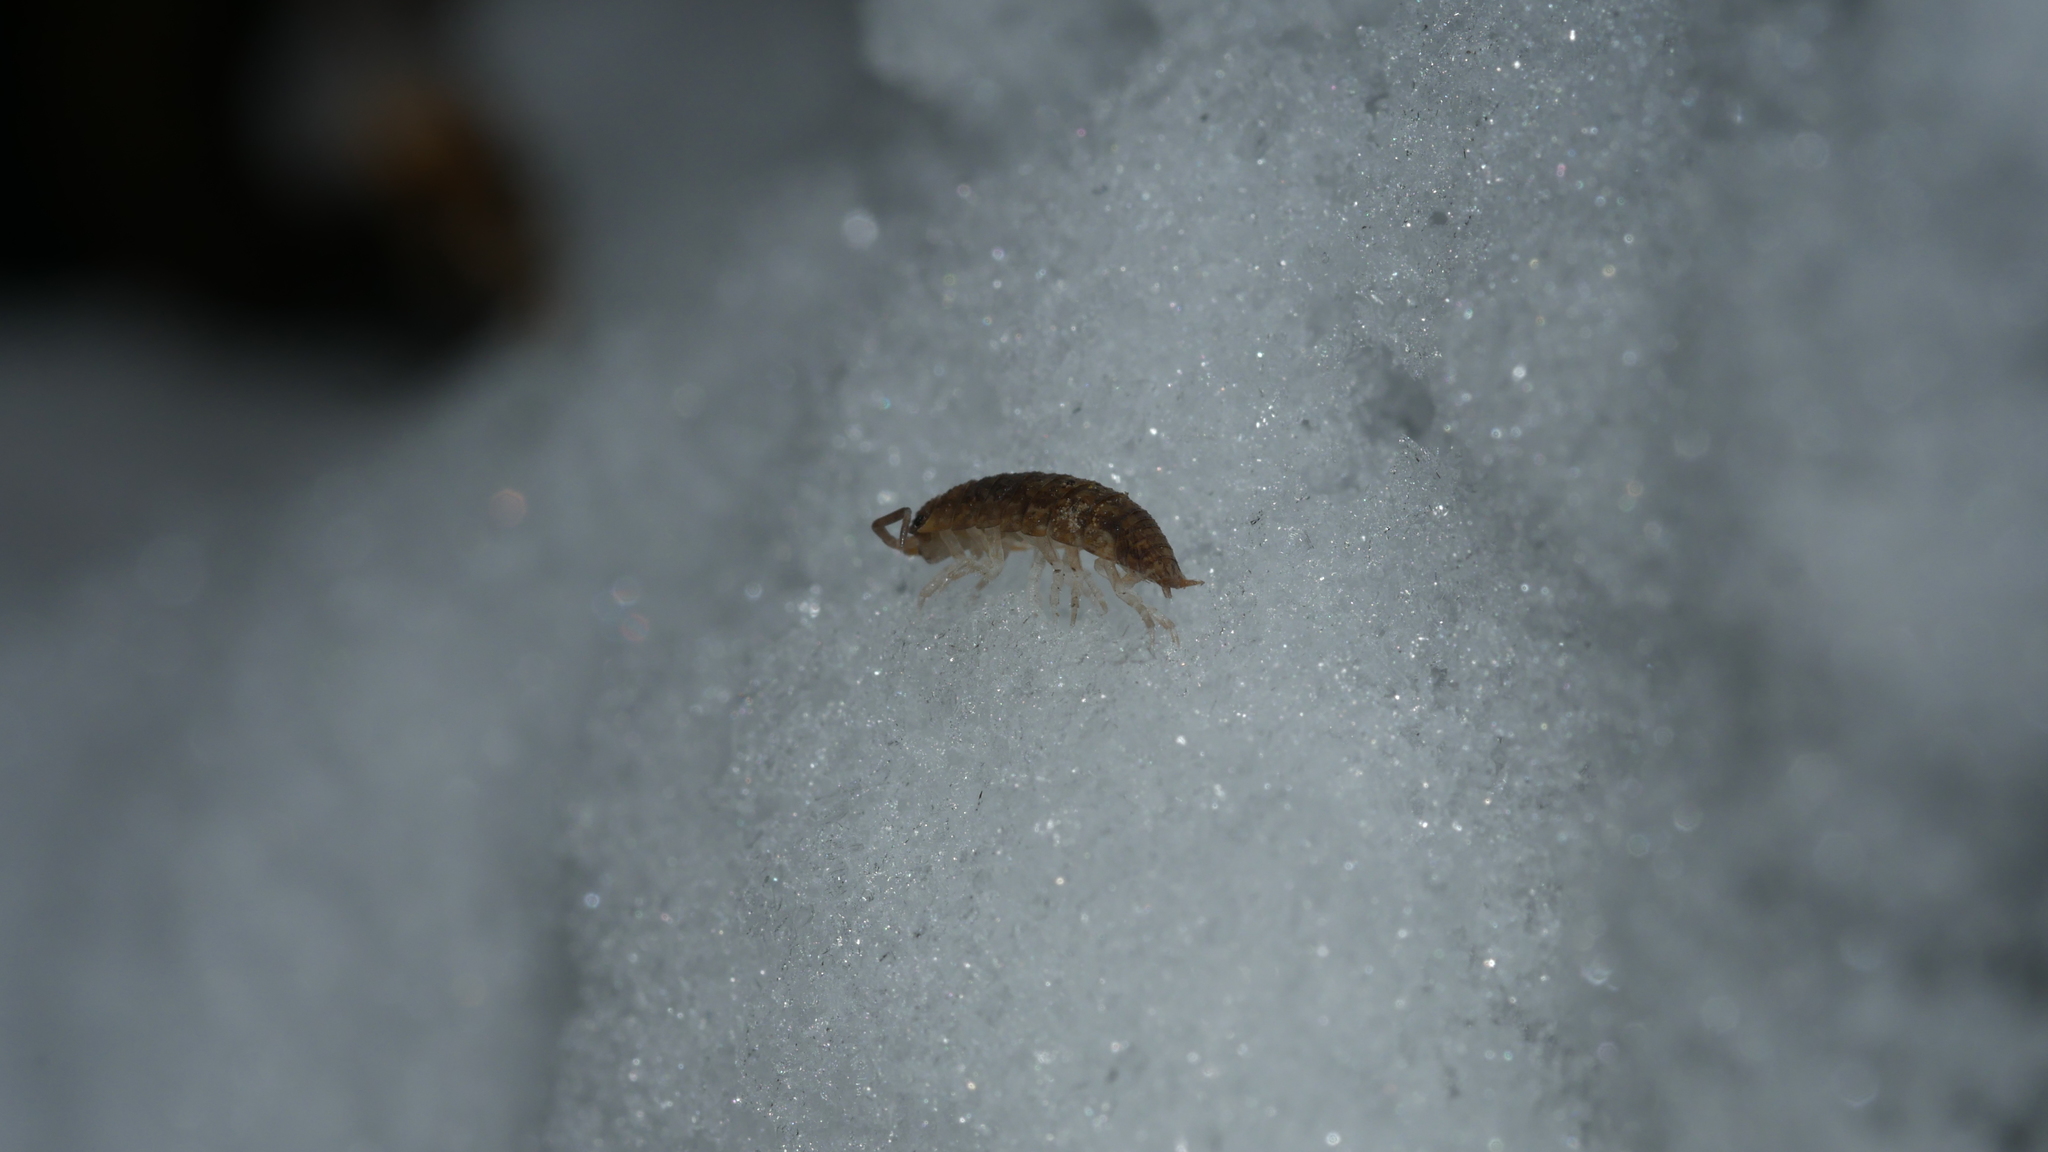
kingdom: Animalia
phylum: Arthropoda
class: Malacostraca
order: Isopoda
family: Porcellionidae
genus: Porcellio
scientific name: Porcellio scaber
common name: Common rough woodlouse
